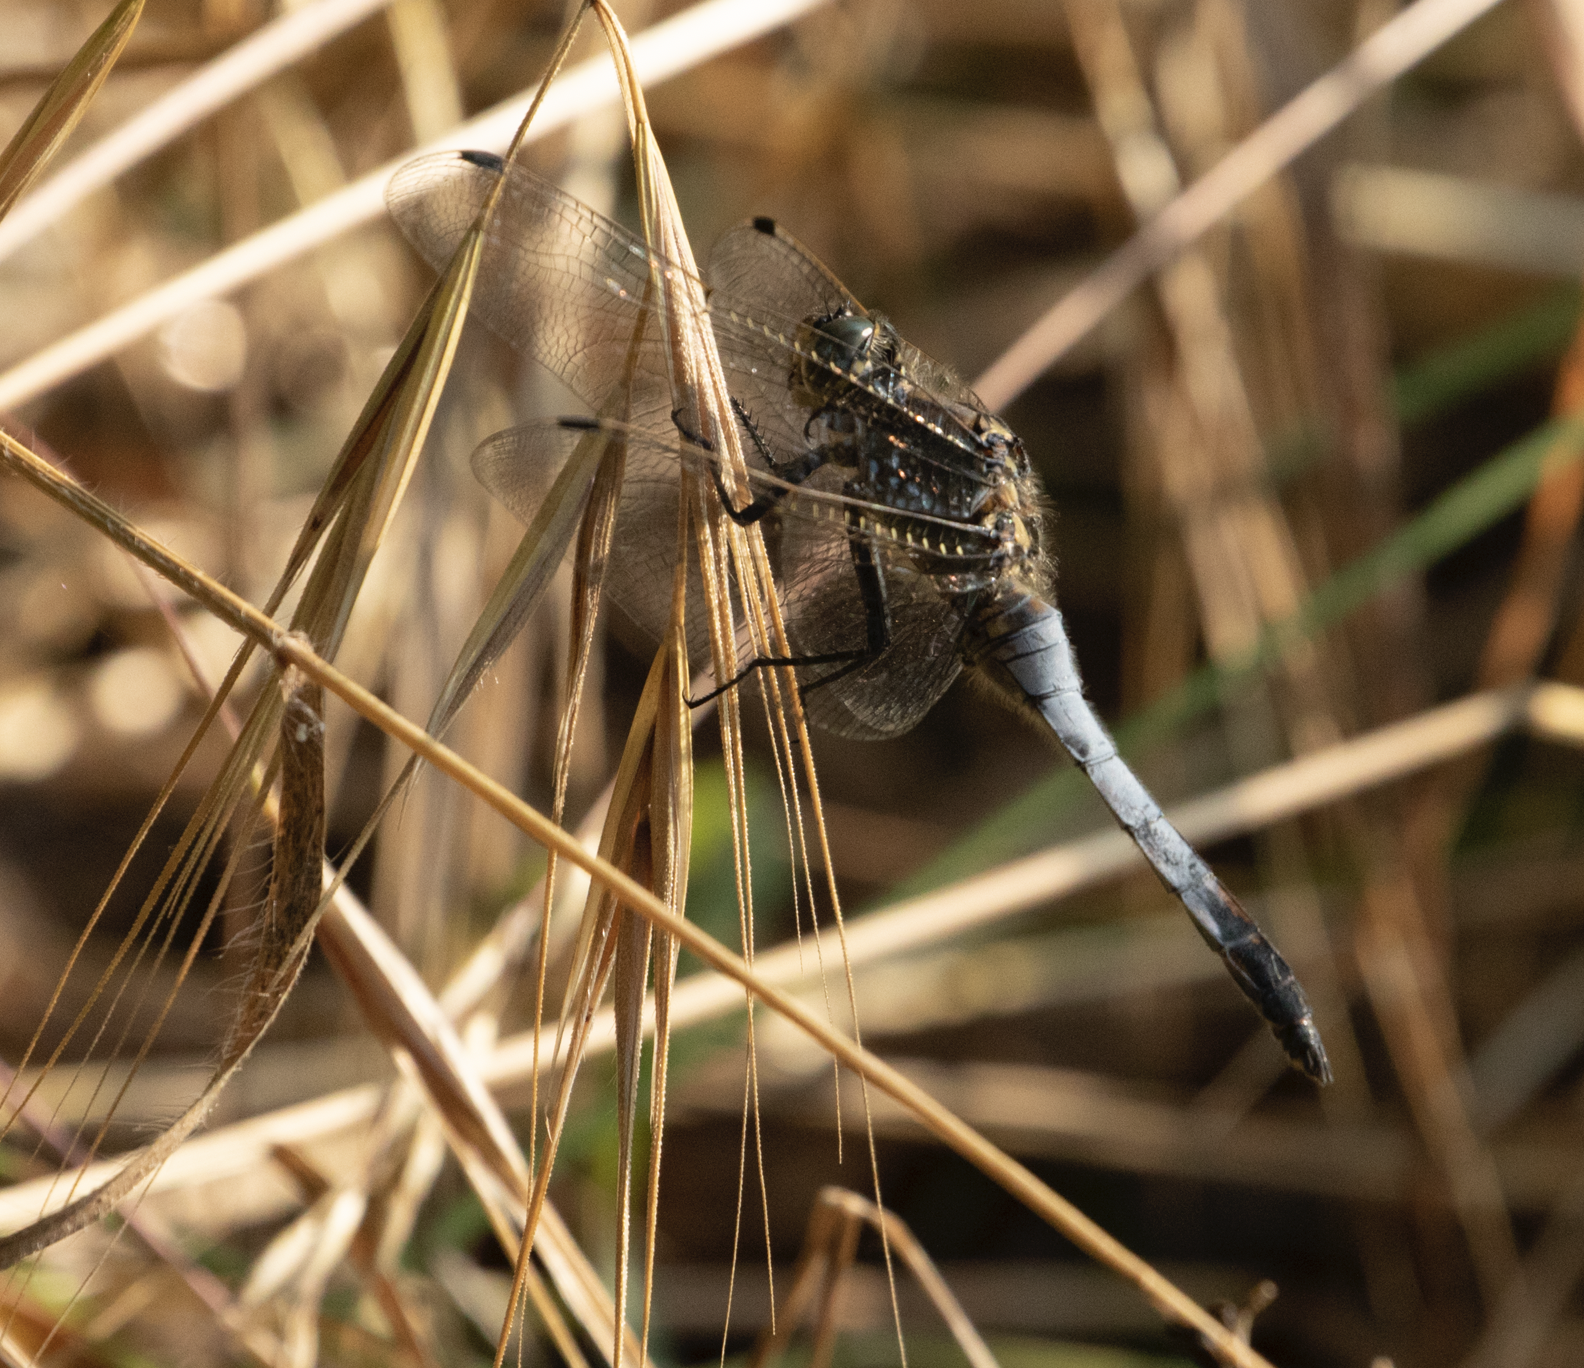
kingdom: Animalia
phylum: Arthropoda
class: Insecta
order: Odonata
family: Libellulidae
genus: Orthetrum
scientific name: Orthetrum cancellatum
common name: Black-tailed skimmer
